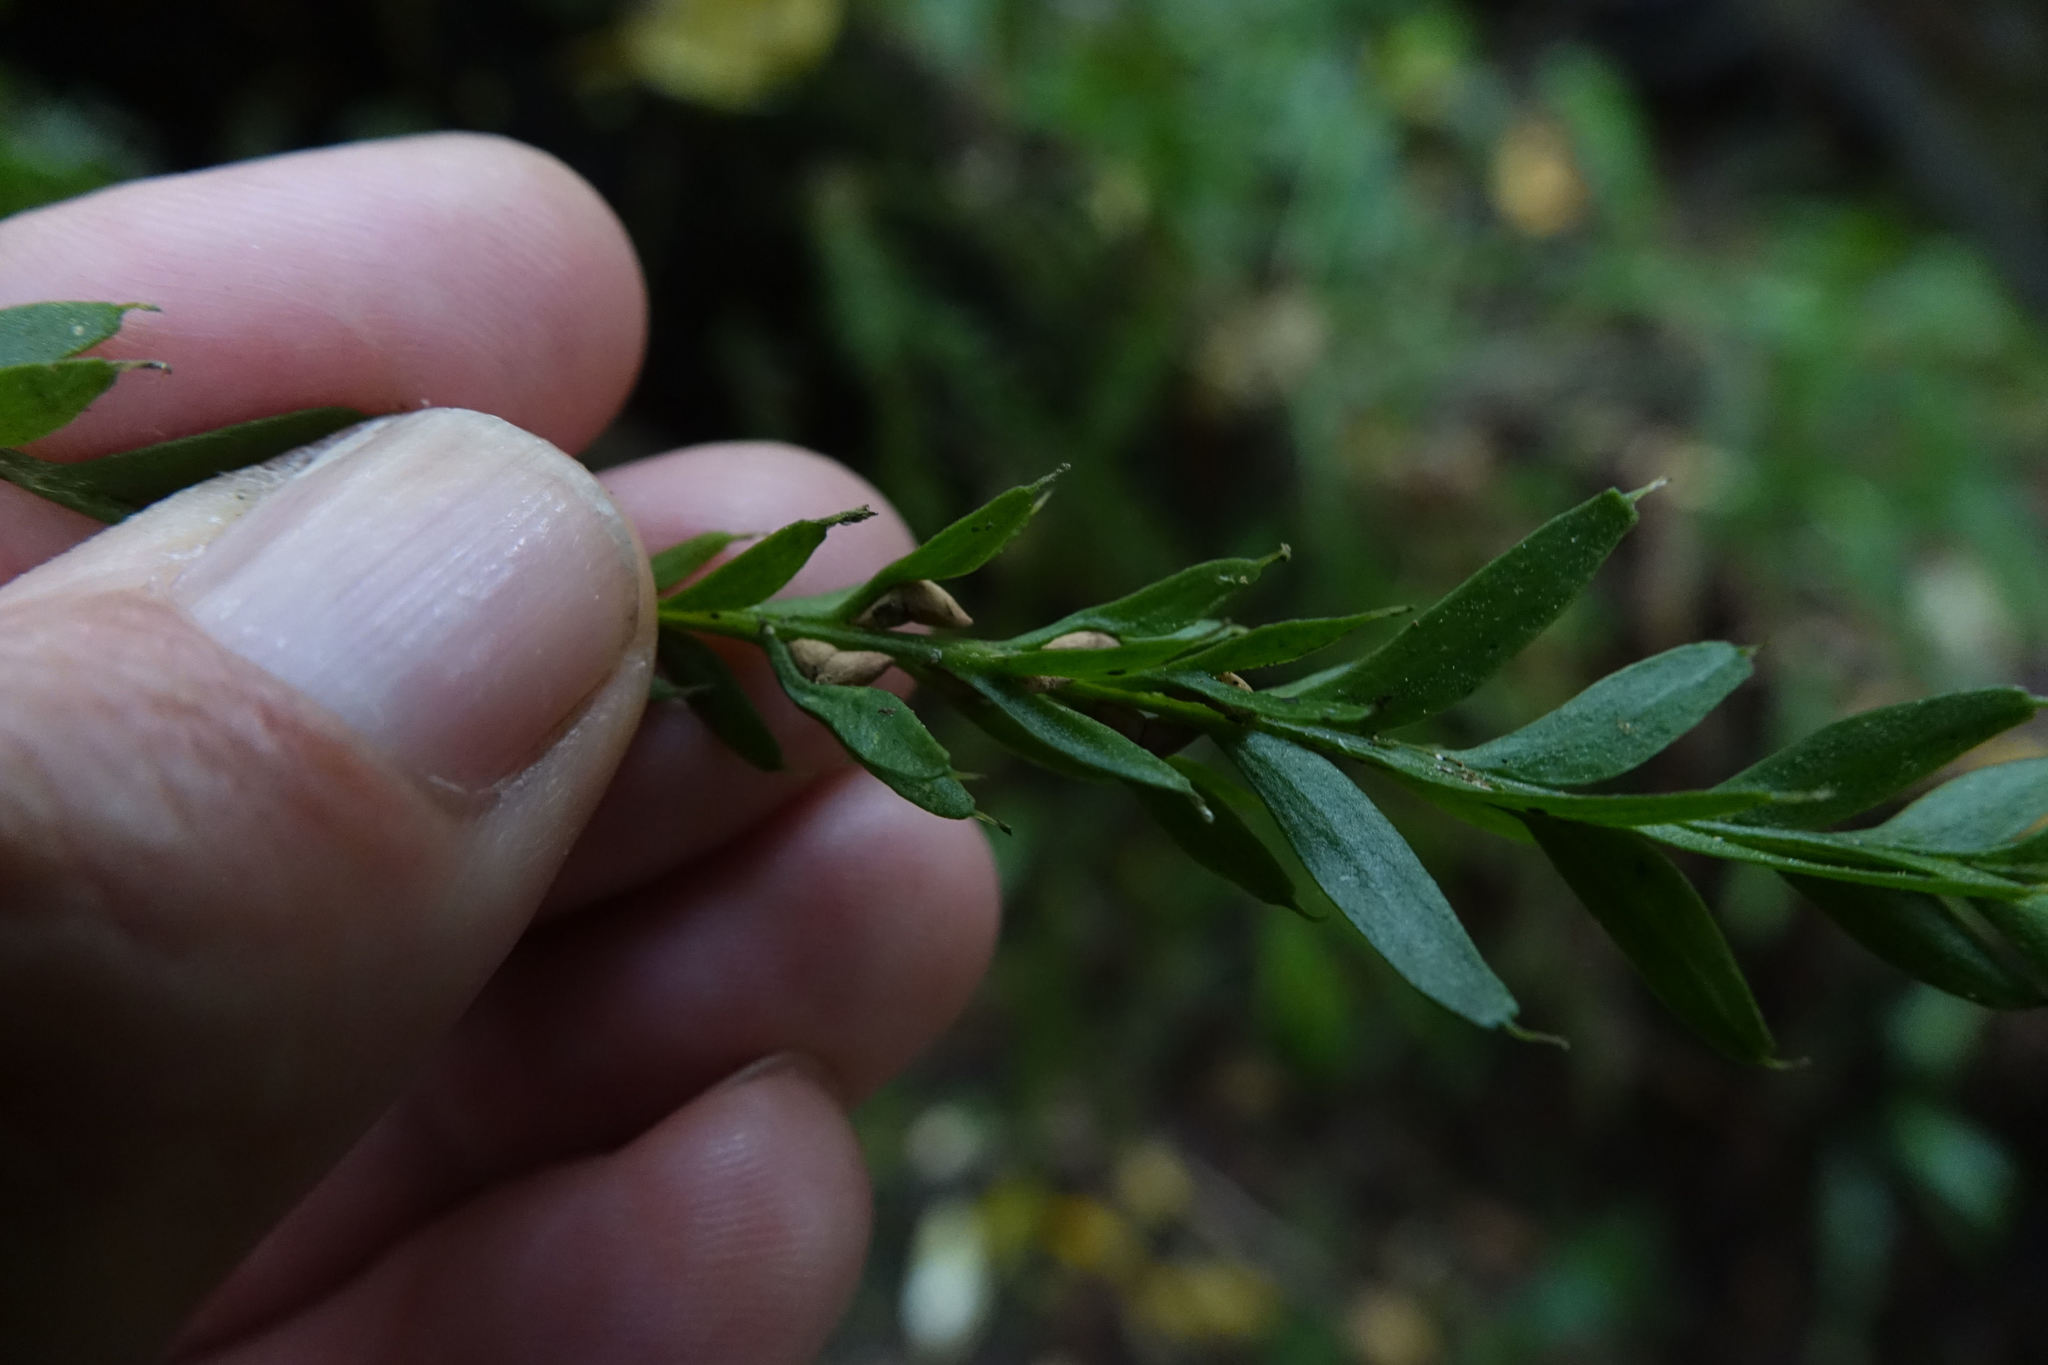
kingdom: Plantae
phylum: Tracheophyta
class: Polypodiopsida
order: Psilotales
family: Psilotaceae
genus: Tmesipteris
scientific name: Tmesipteris tannensis
